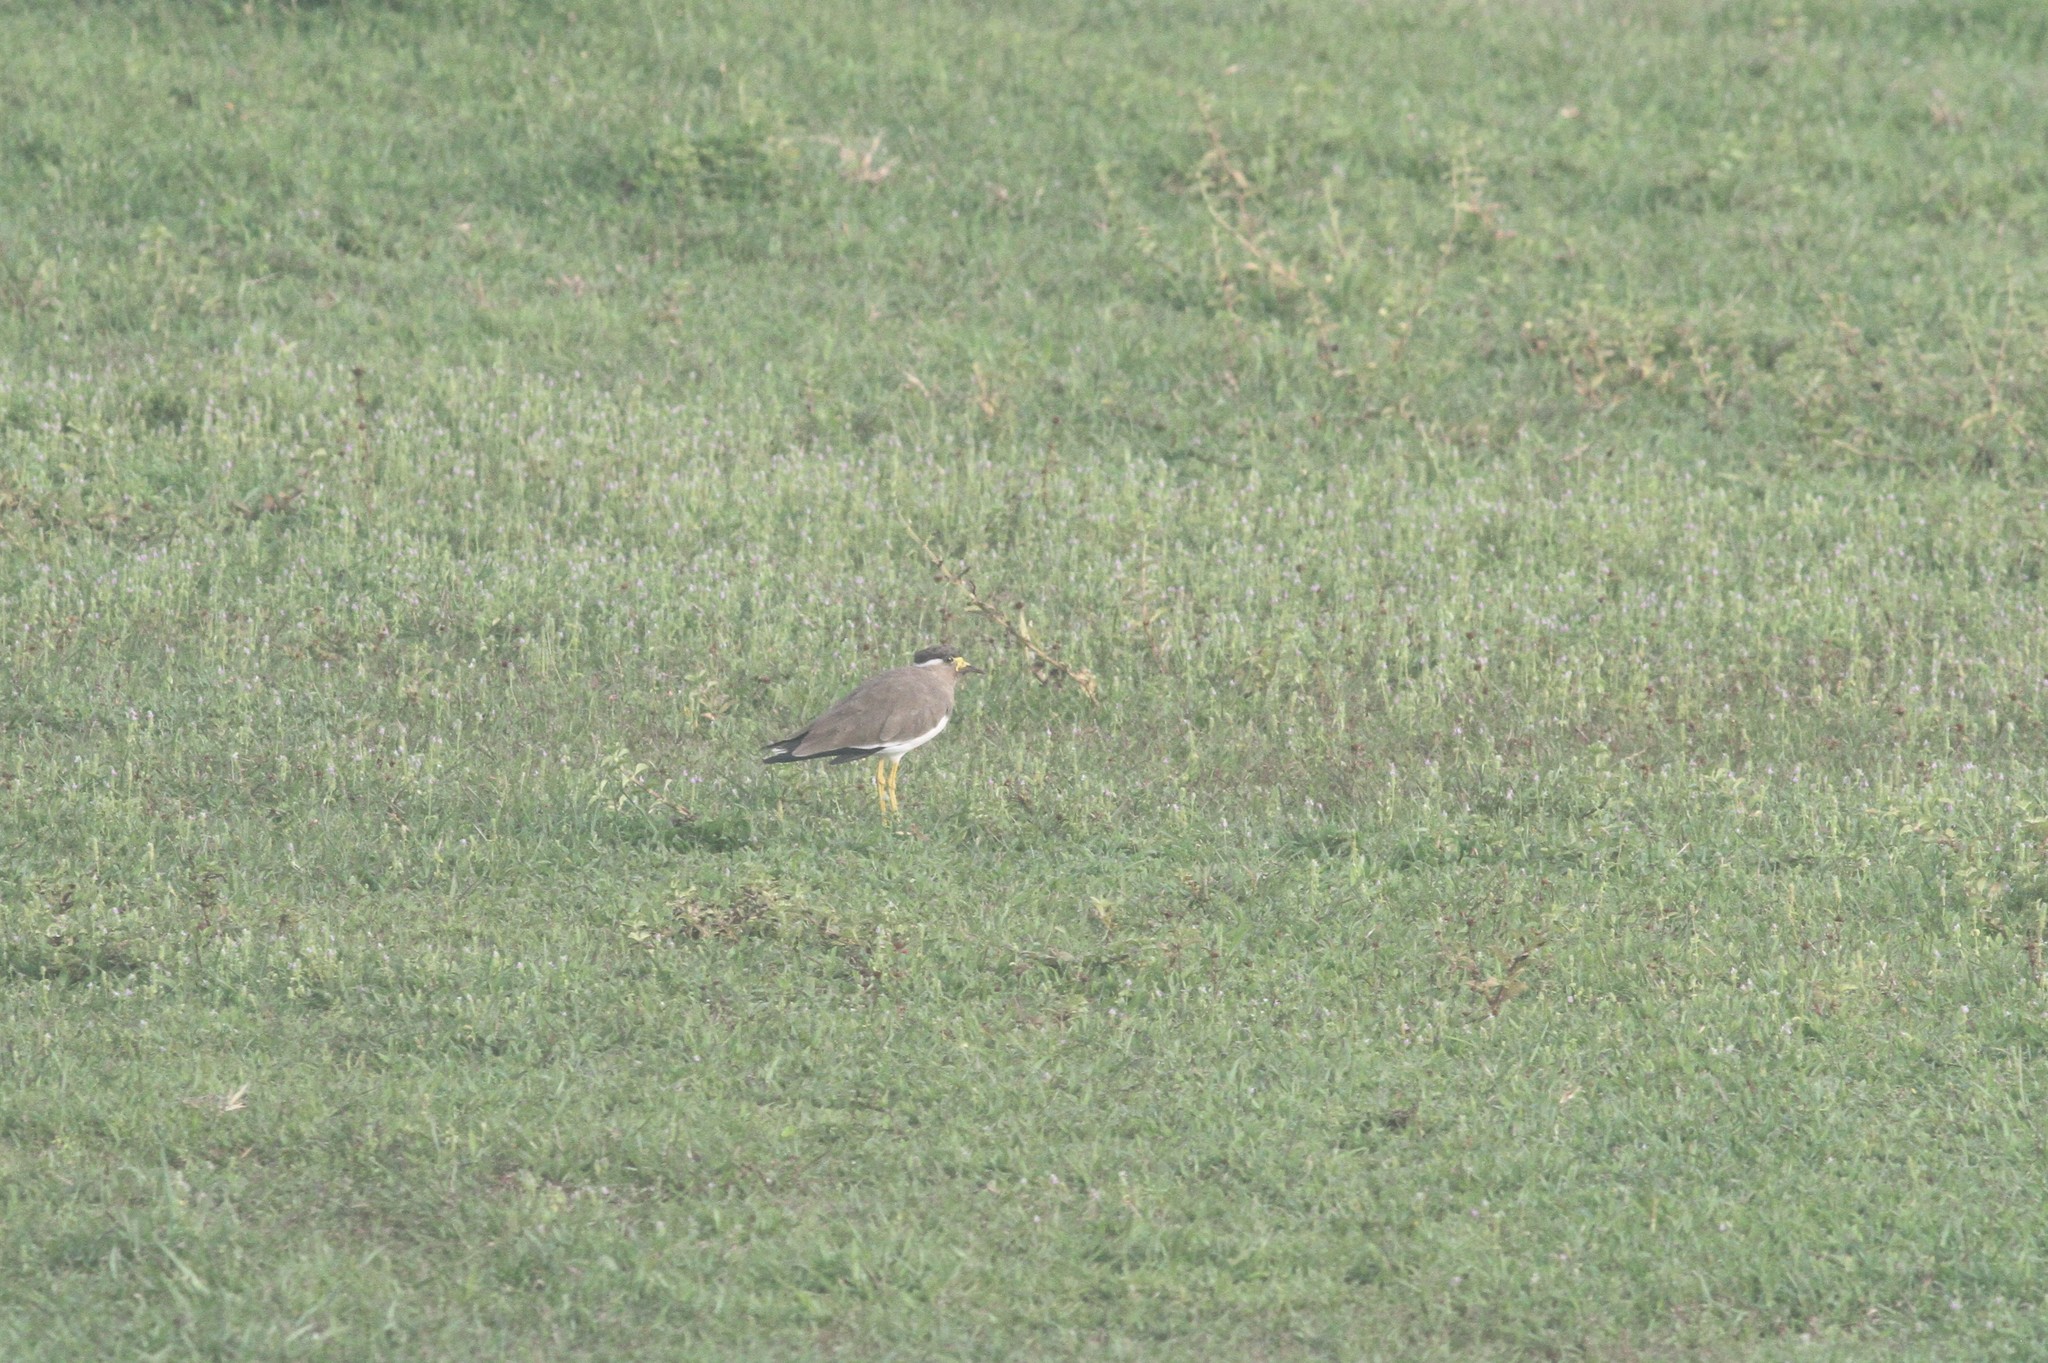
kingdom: Animalia
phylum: Chordata
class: Aves
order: Charadriiformes
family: Charadriidae
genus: Vanellus
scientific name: Vanellus malabaricus
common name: Yellow-wattled lapwing
